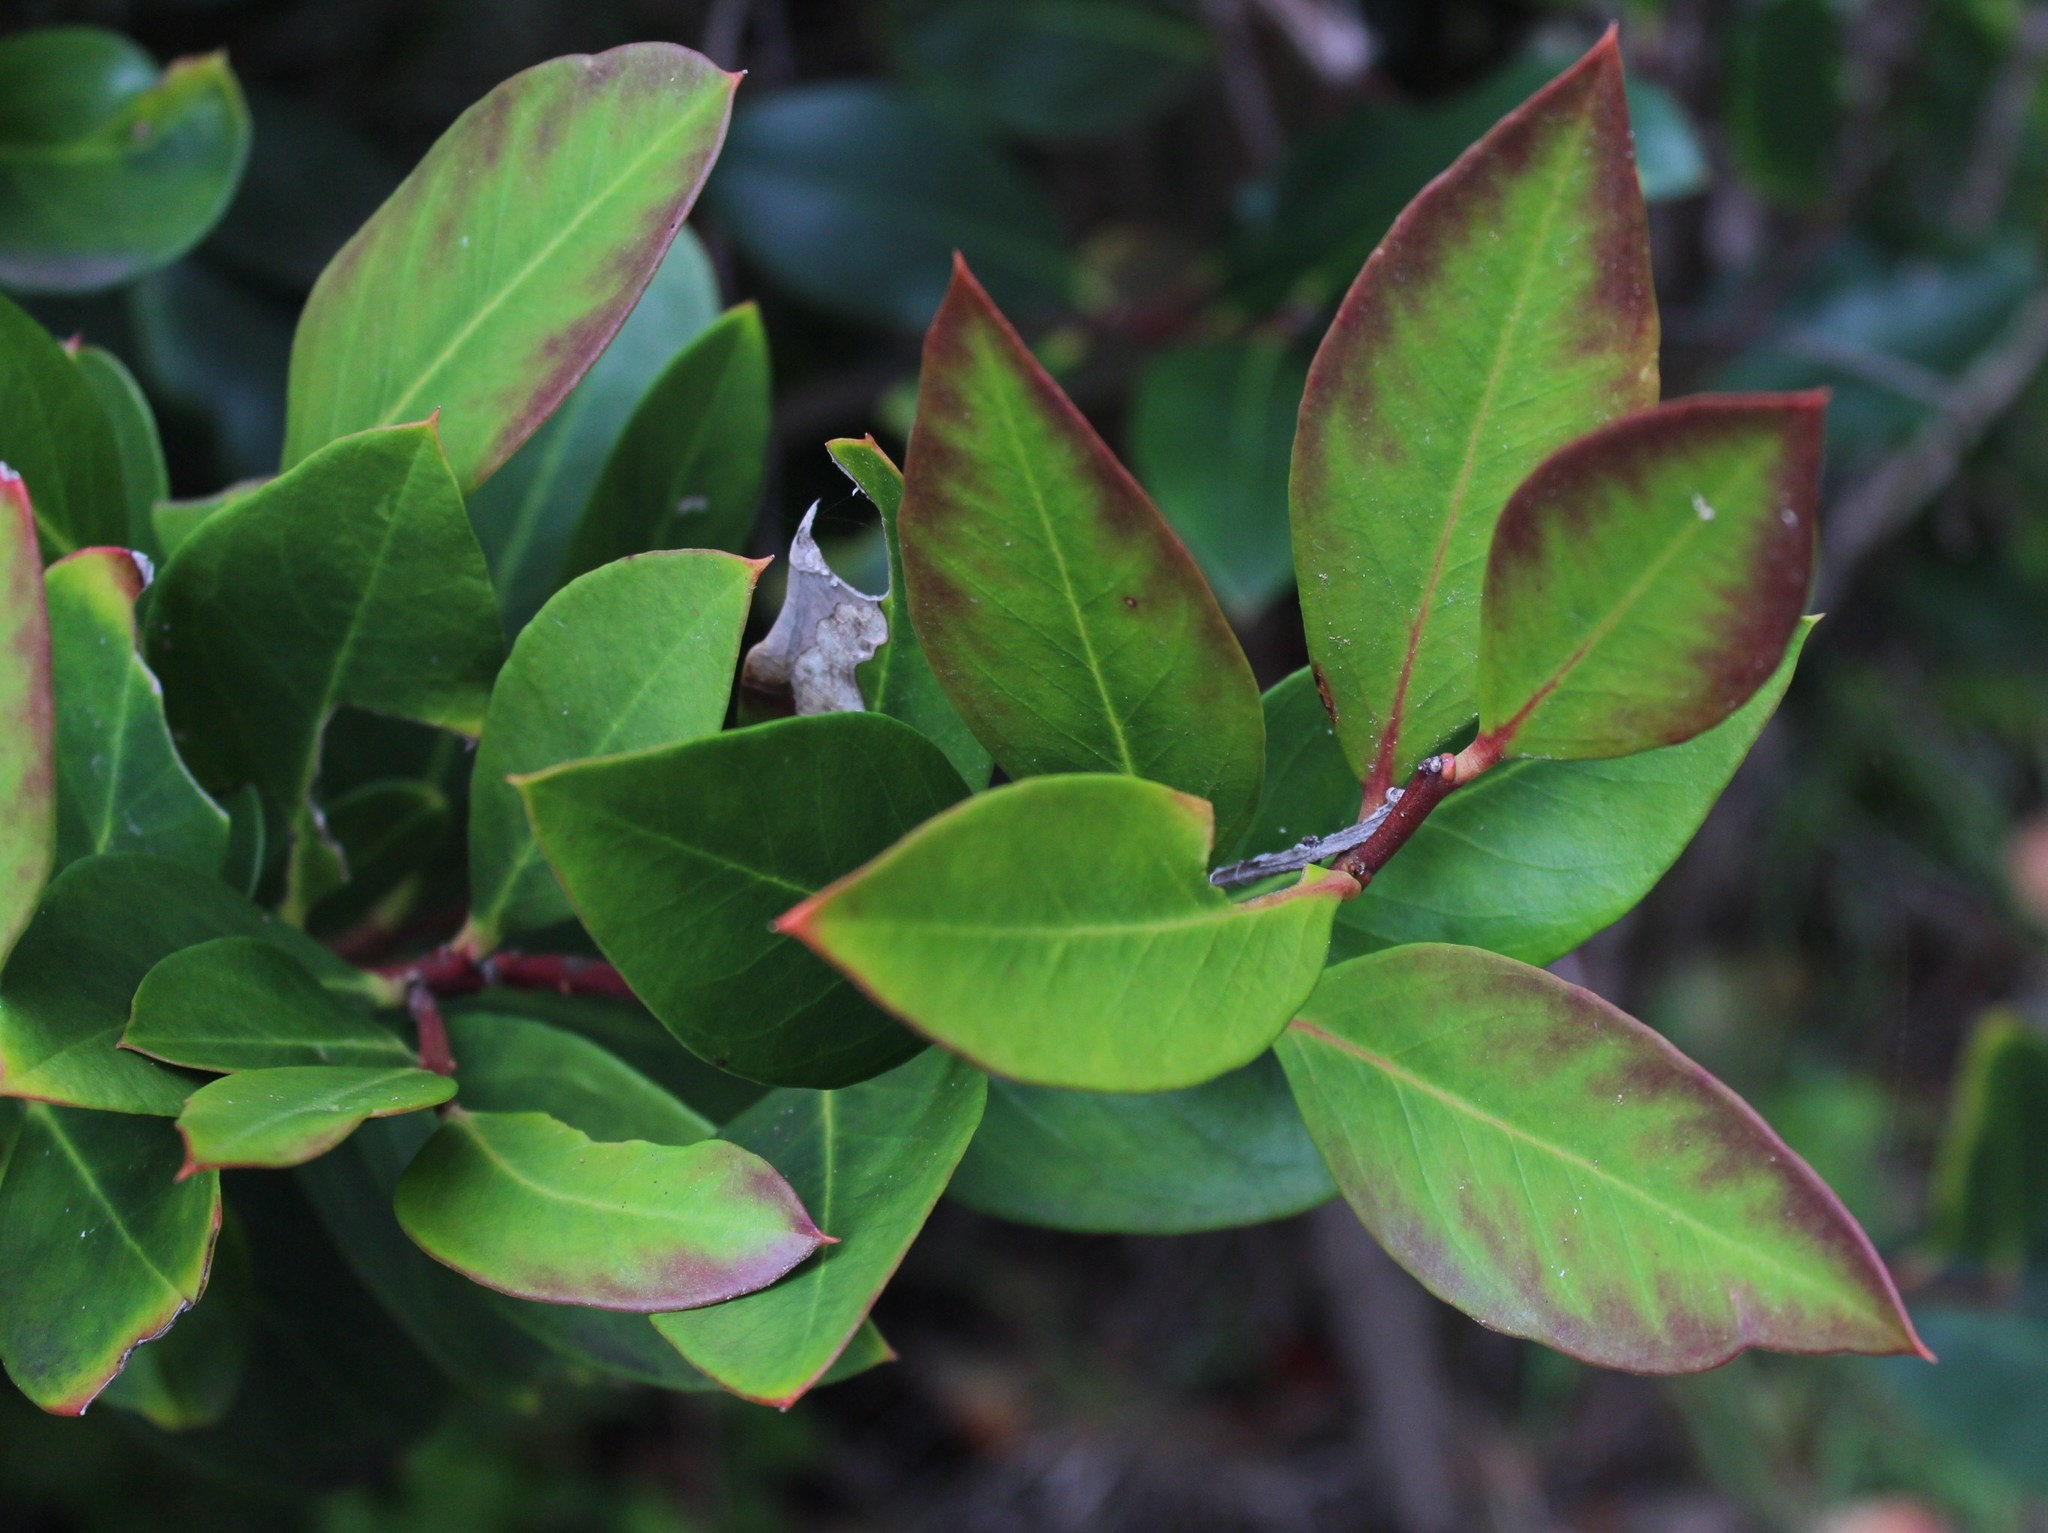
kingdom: Plantae
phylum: Tracheophyta
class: Magnoliopsida
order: Gentianales
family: Apocynaceae
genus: Acokanthera
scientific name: Acokanthera oppositifolia
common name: Bushman's-poison
